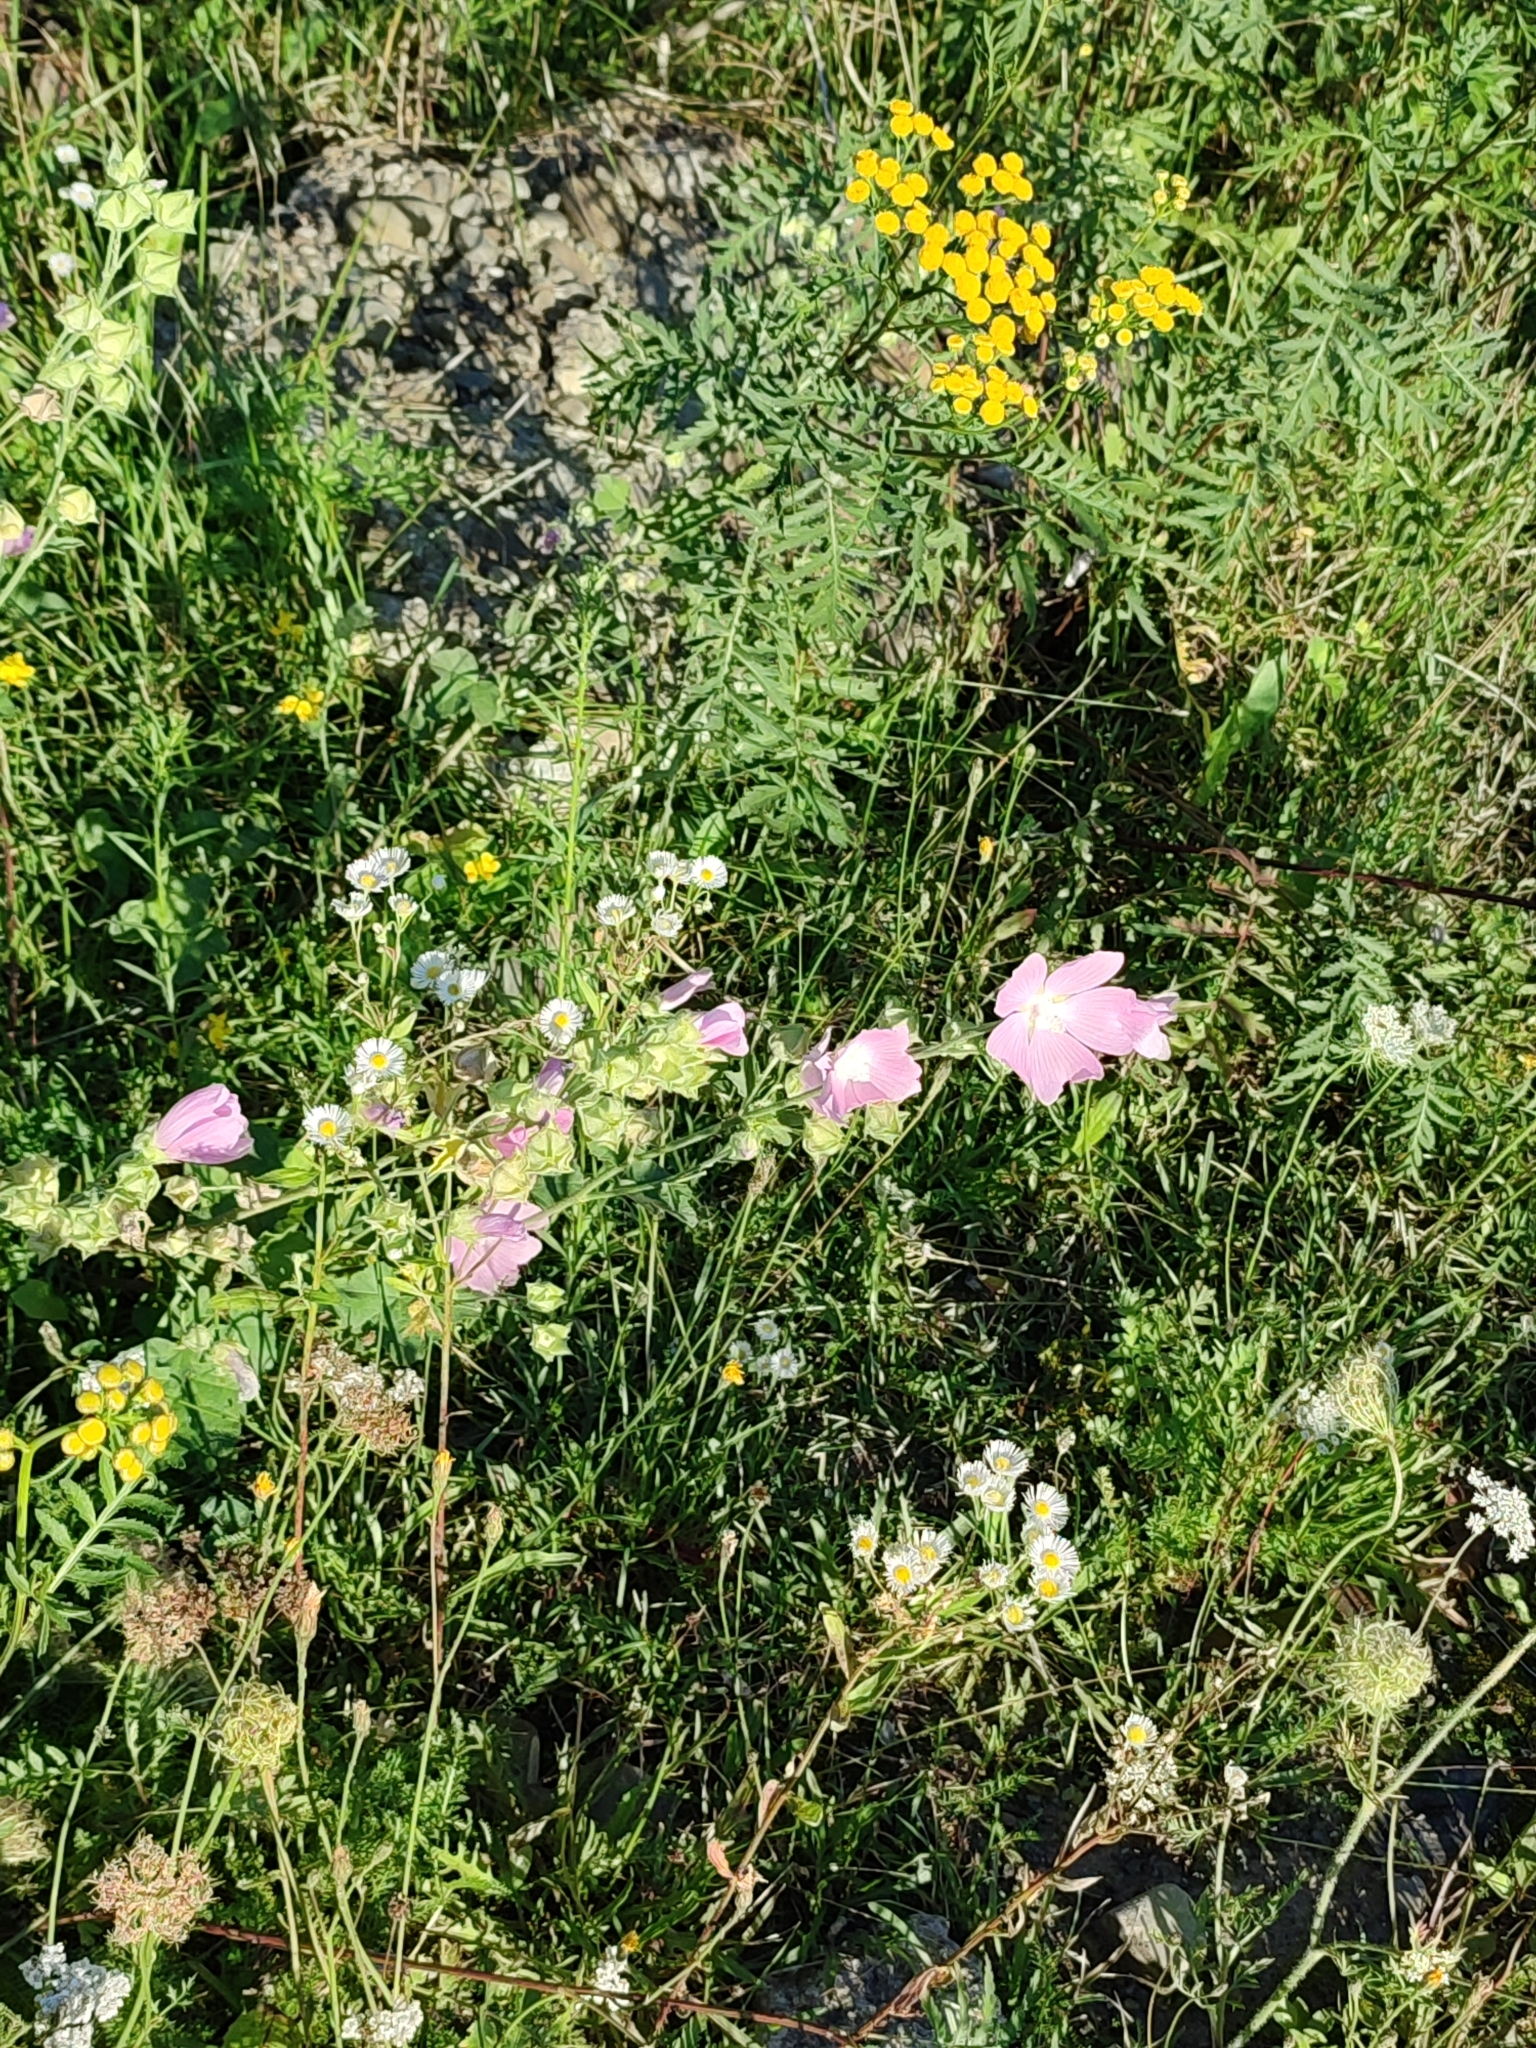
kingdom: Plantae
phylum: Tracheophyta
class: Magnoliopsida
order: Malvales
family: Malvaceae
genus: Malva
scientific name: Malva thuringiaca
